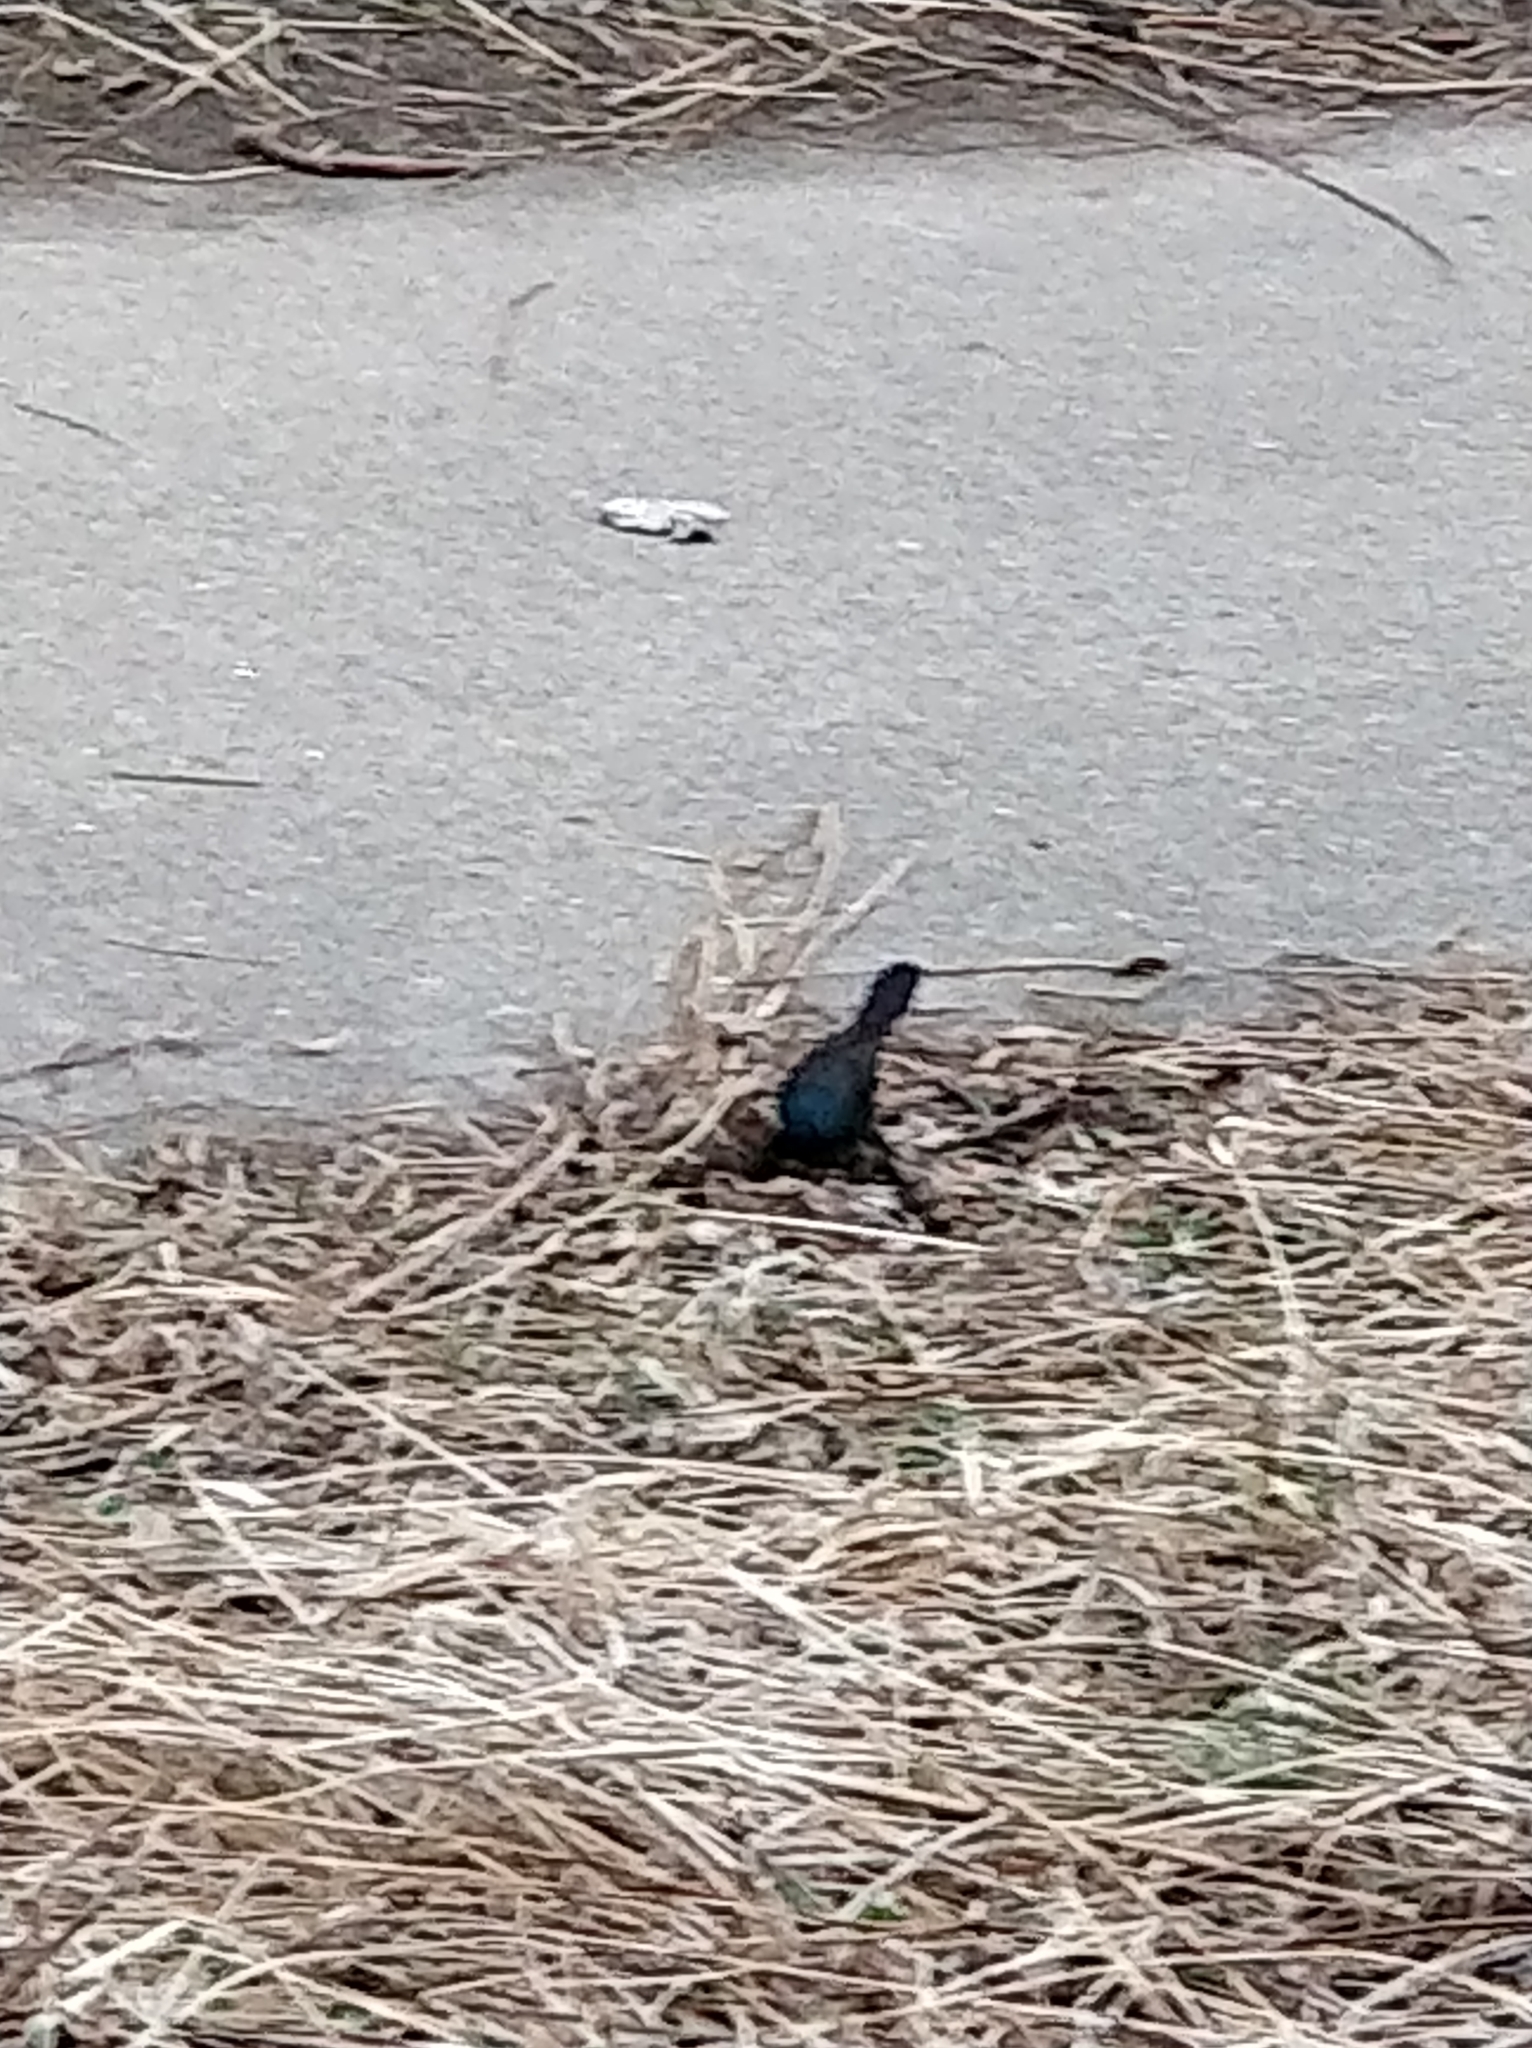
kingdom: Animalia
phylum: Chordata
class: Aves
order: Passeriformes
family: Icteridae
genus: Quiscalus
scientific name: Quiscalus quiscula
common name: Common grackle
